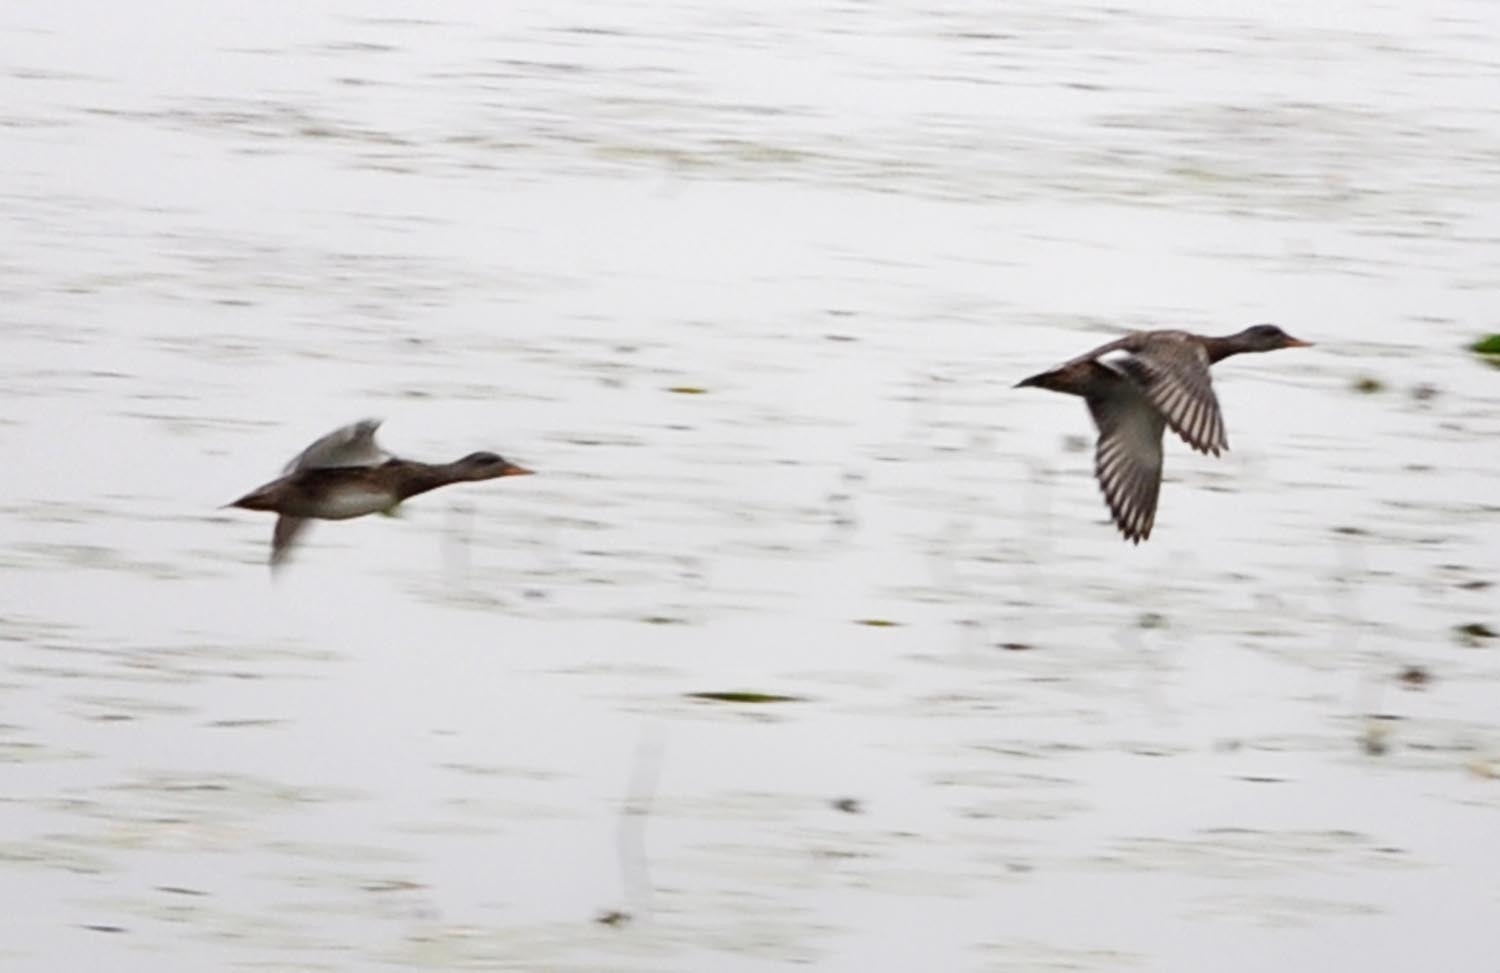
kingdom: Animalia
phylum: Chordata
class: Aves
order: Anseriformes
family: Anatidae
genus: Mareca
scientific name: Mareca strepera
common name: Gadwall
